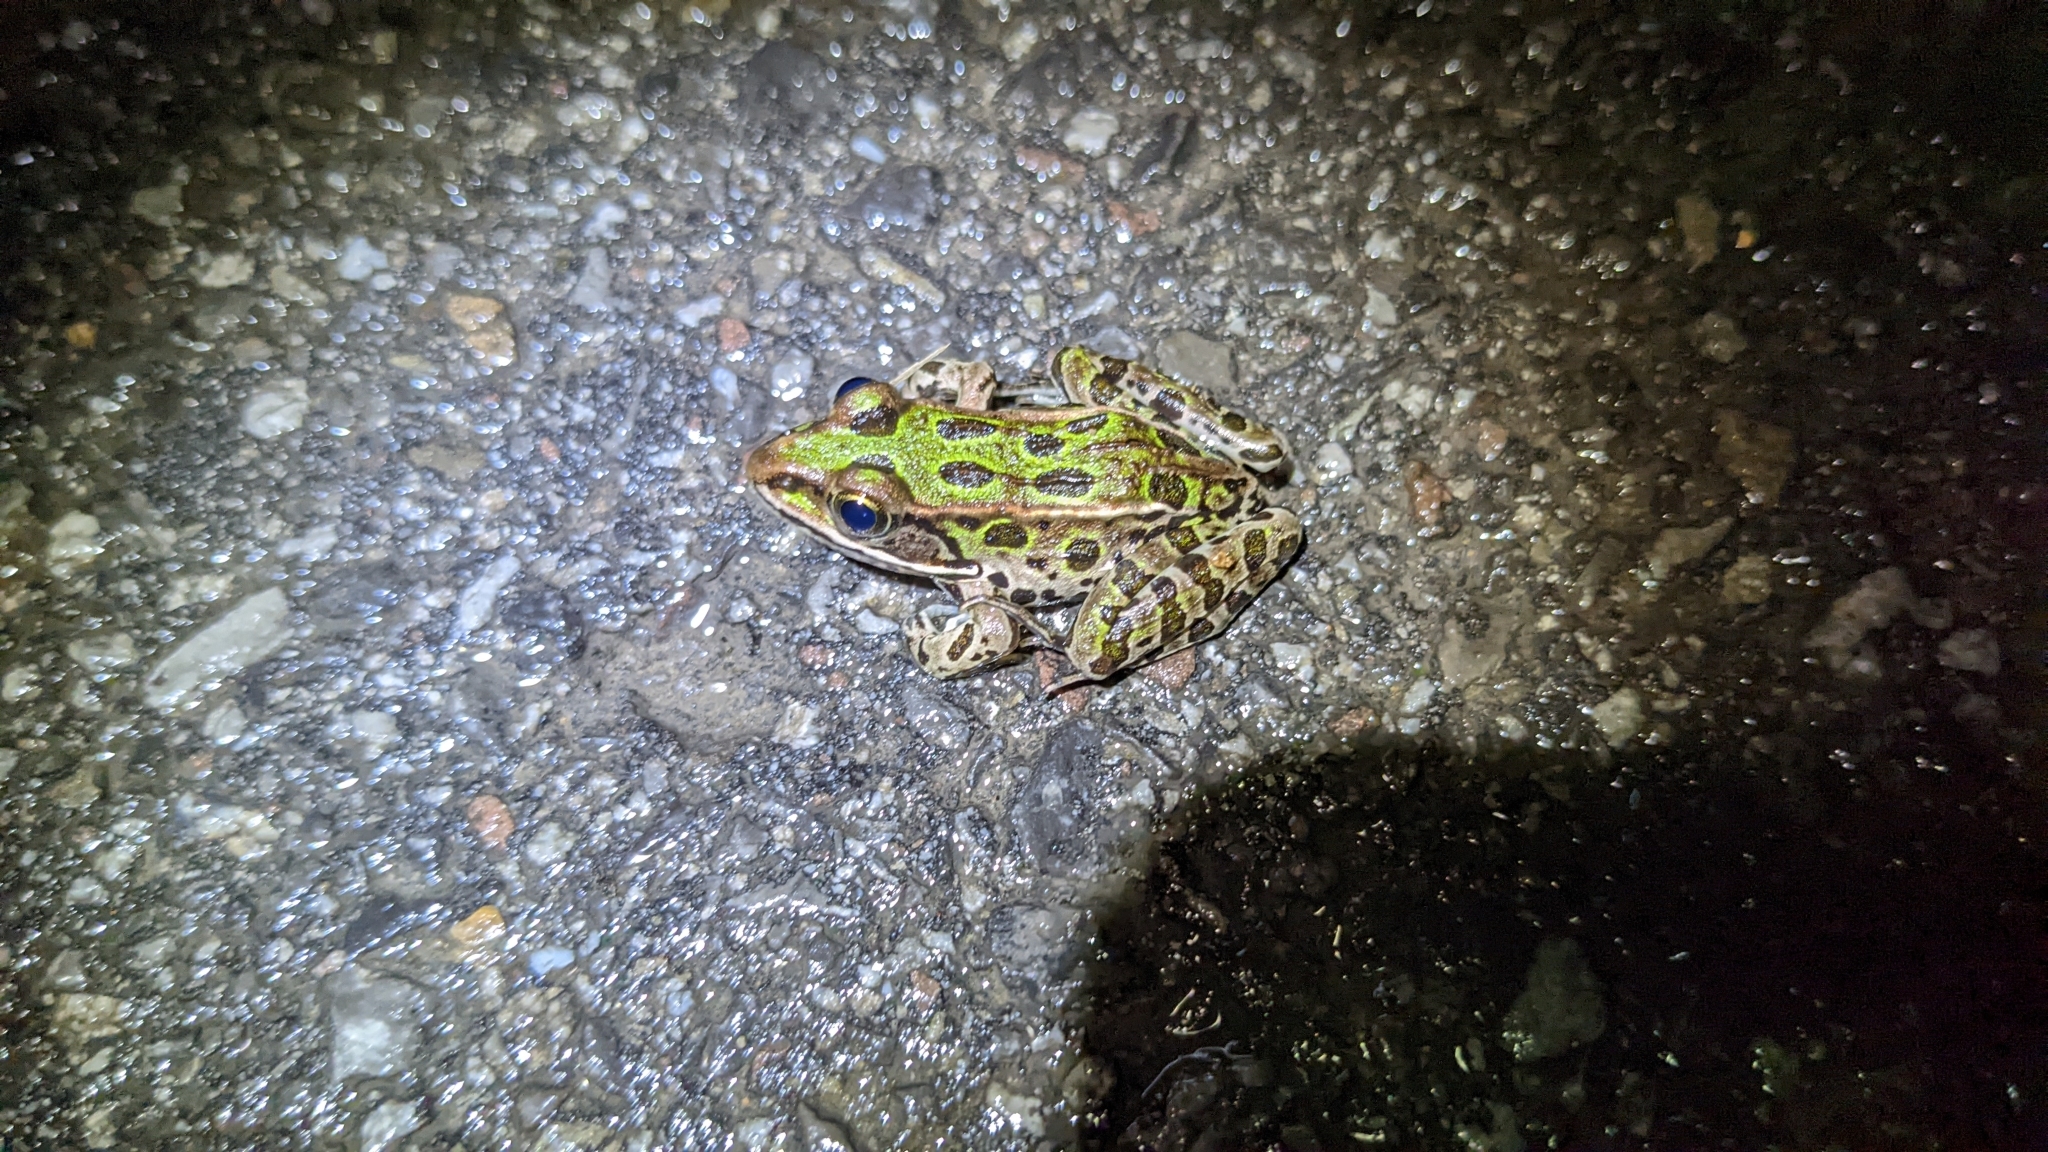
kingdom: Animalia
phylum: Chordata
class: Amphibia
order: Anura
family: Ranidae
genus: Lithobates
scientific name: Lithobates pipiens
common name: Northern leopard frog
